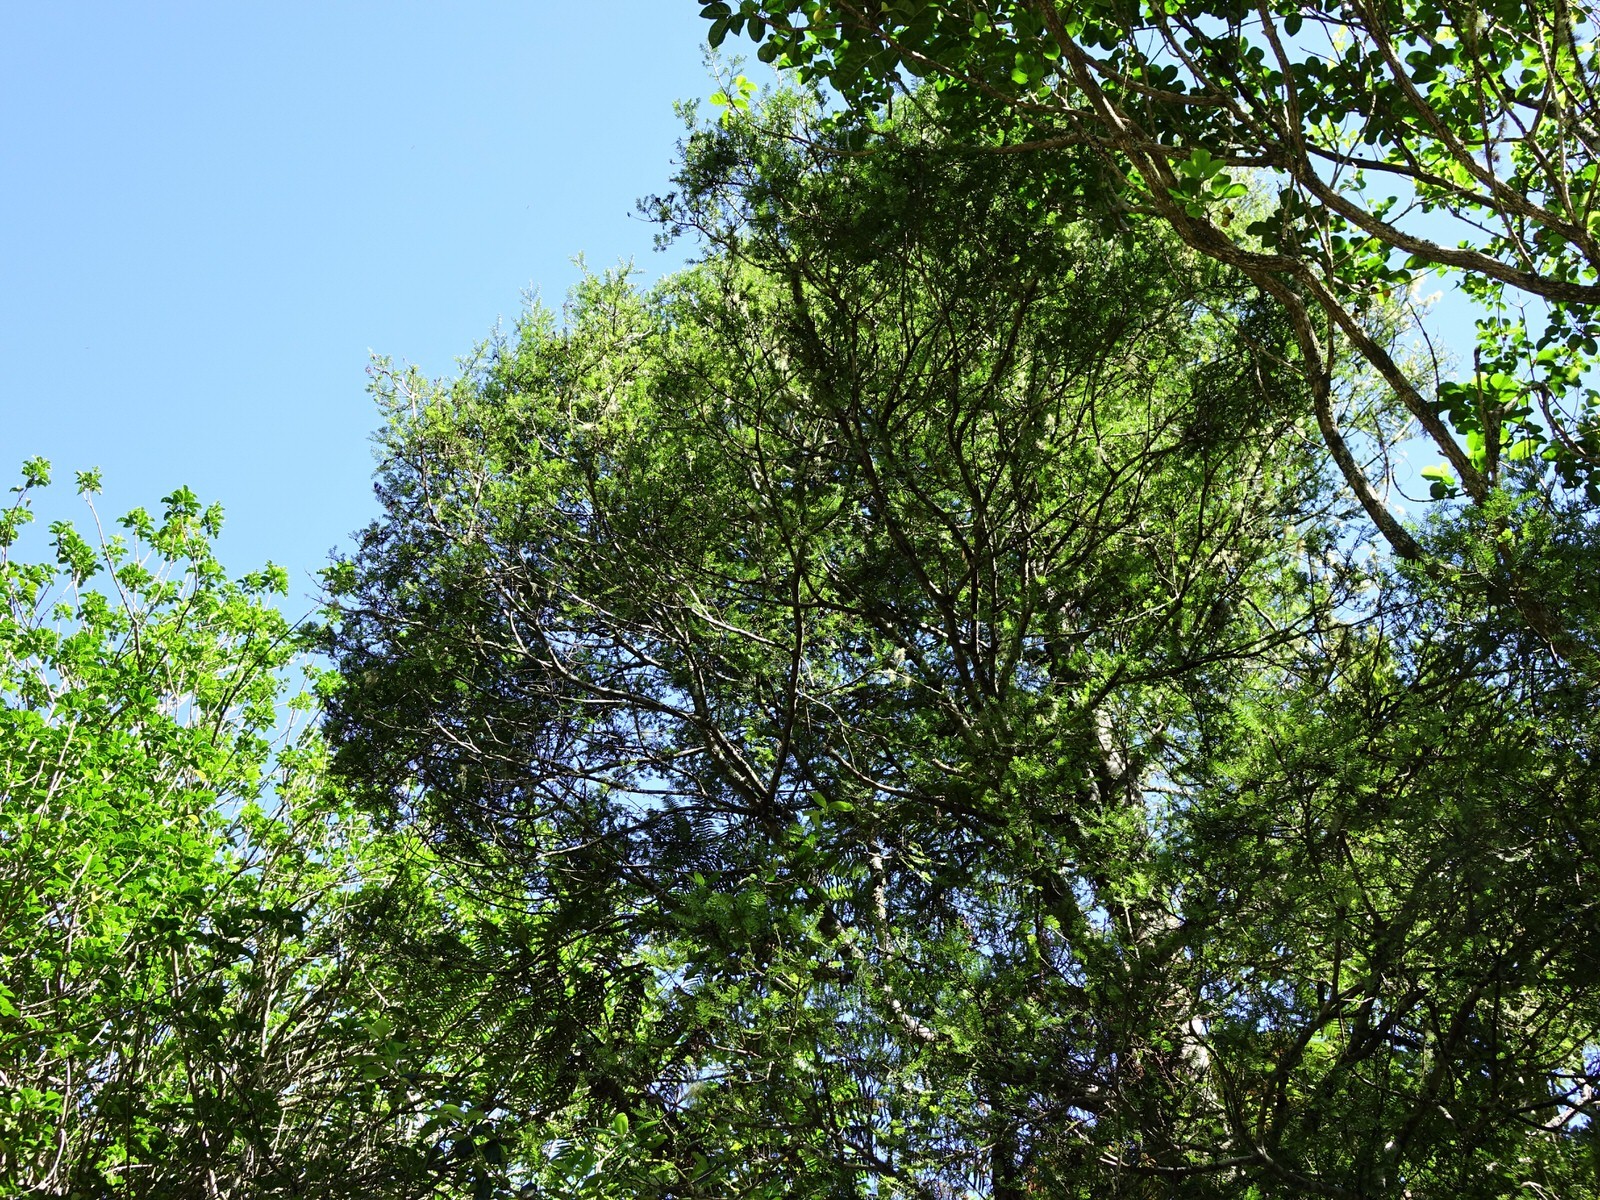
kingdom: Plantae
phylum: Tracheophyta
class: Pinopsida
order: Pinales
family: Podocarpaceae
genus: Prumnopitys
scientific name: Prumnopitys taxifolia
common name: Matai
